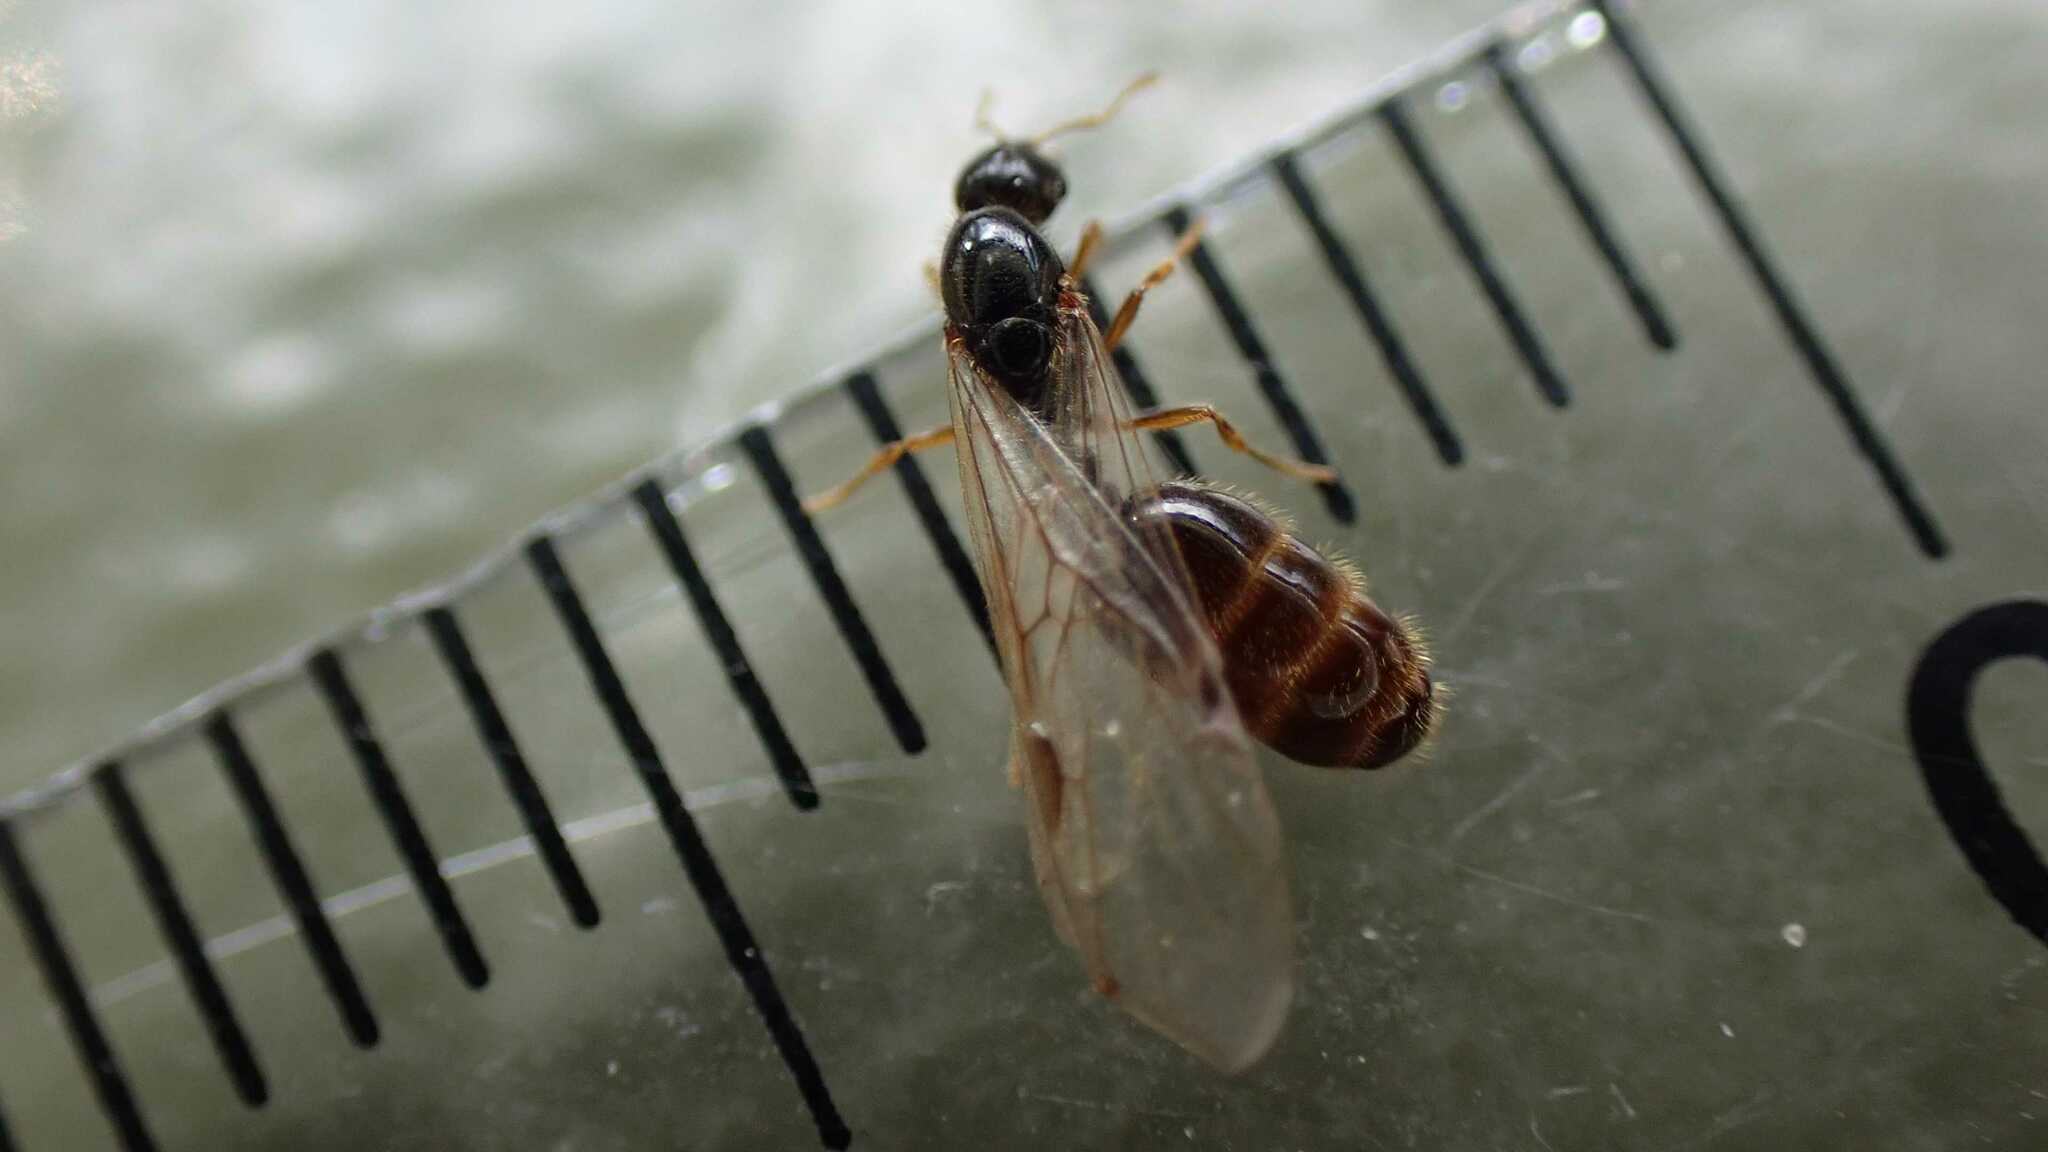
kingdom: Animalia
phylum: Arthropoda
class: Insecta
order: Hymenoptera
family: Formicidae
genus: Solenopsis
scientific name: Solenopsis fugax
